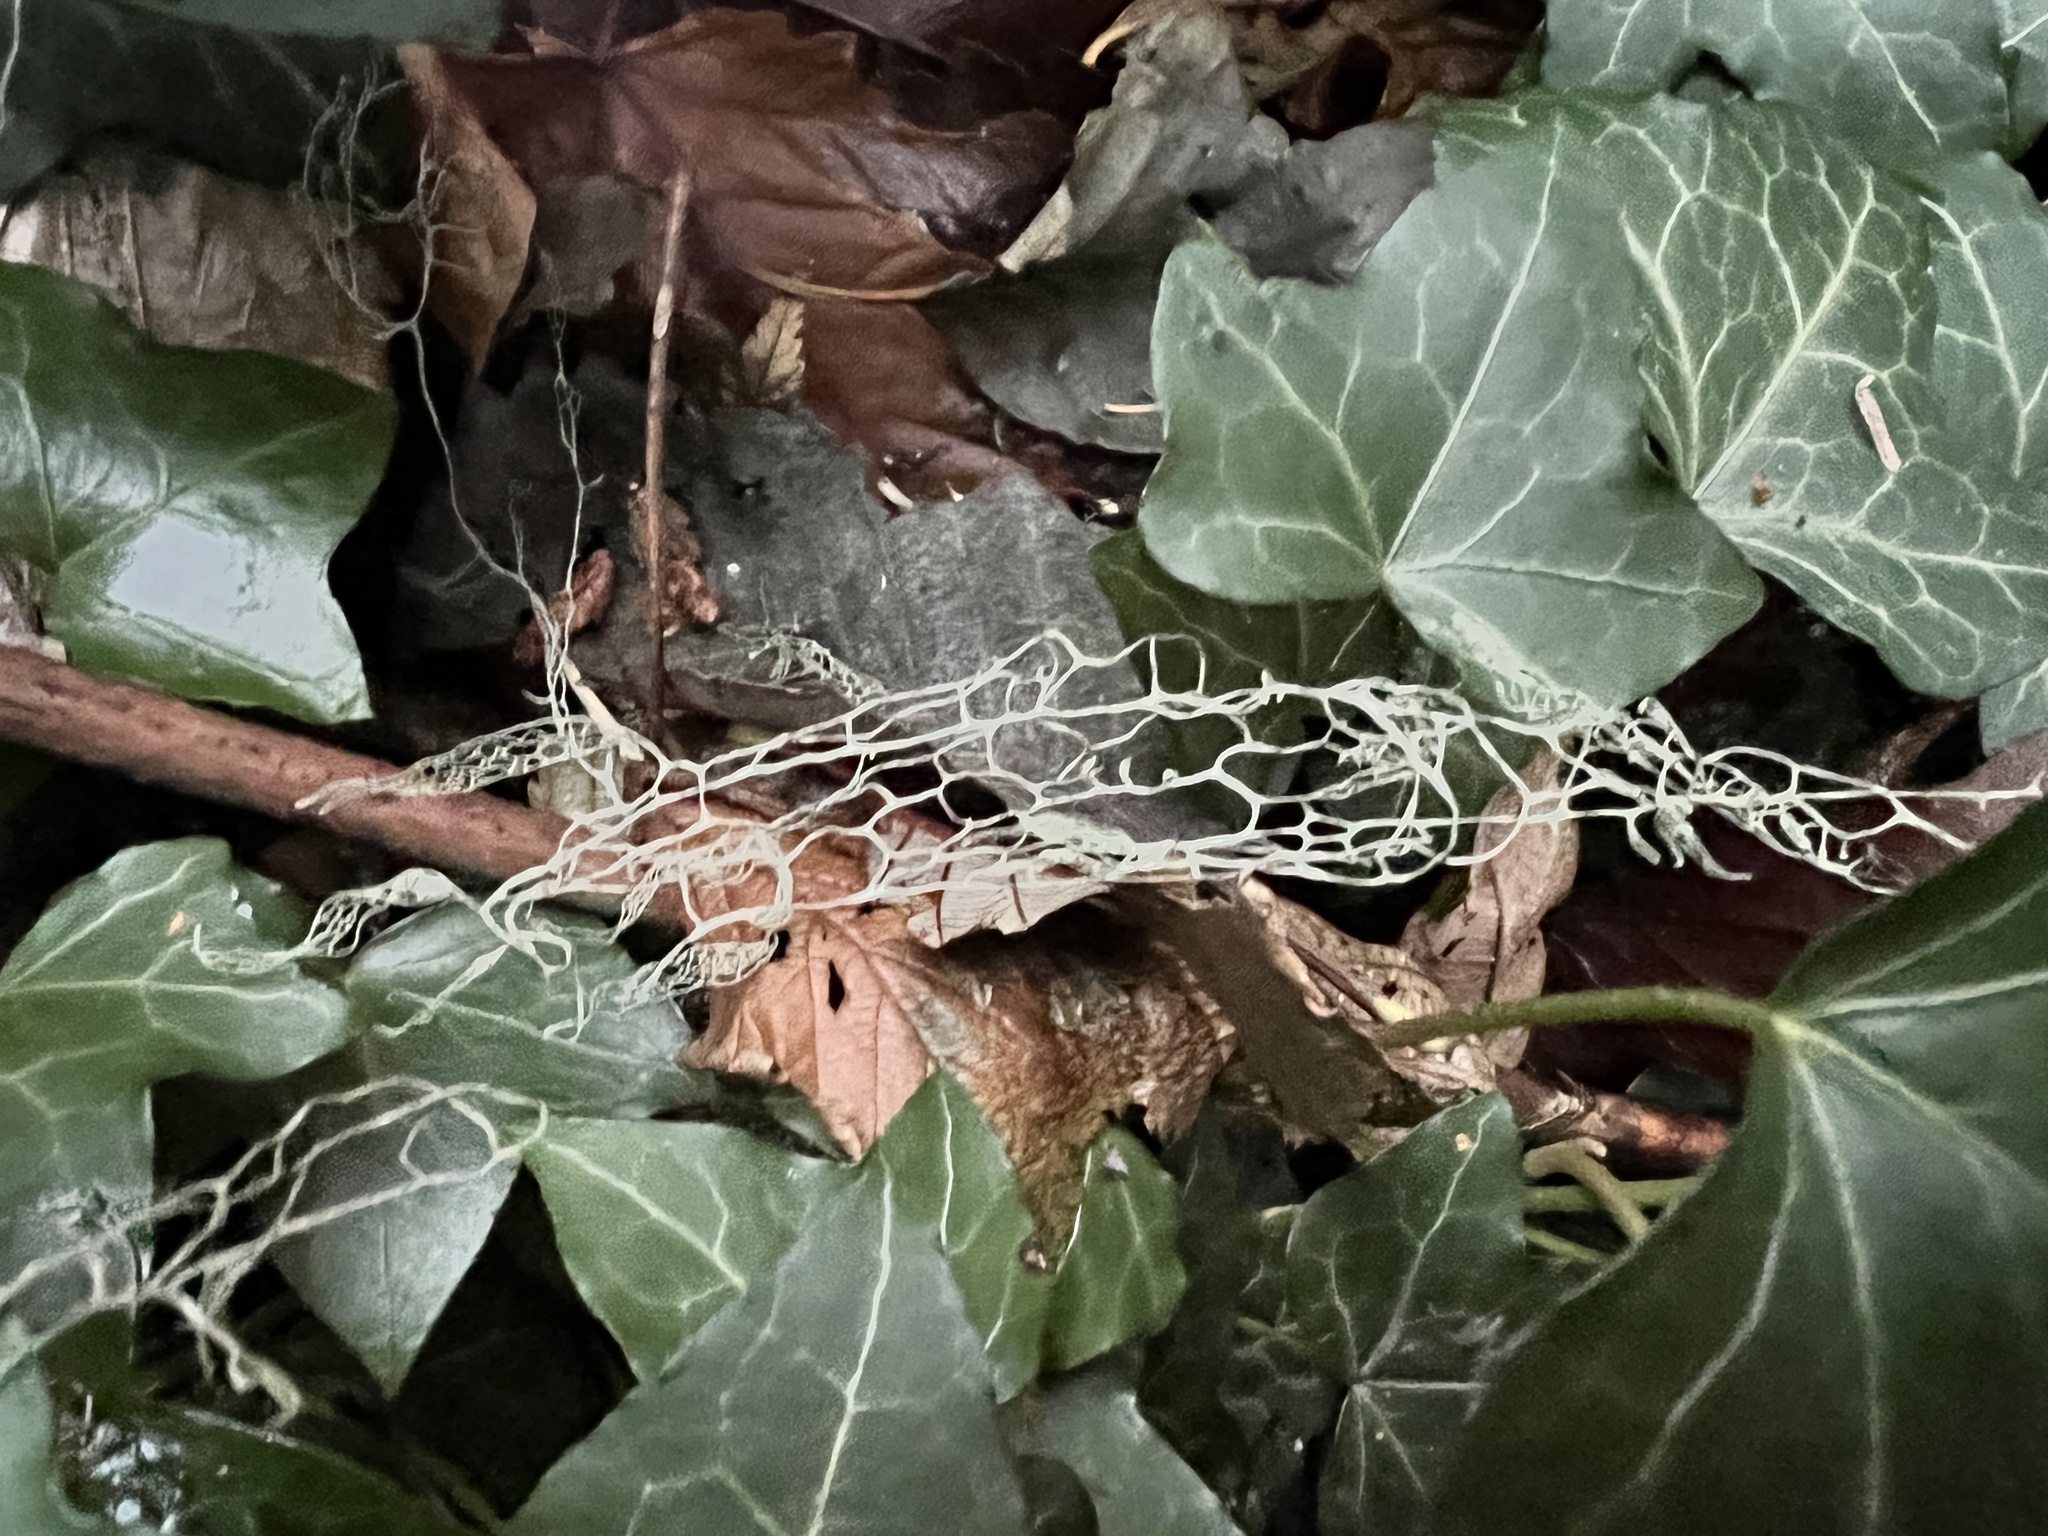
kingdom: Fungi
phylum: Ascomycota
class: Lecanoromycetes
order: Lecanorales
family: Ramalinaceae
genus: Ramalina
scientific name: Ramalina menziesii
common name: Lace lichen
